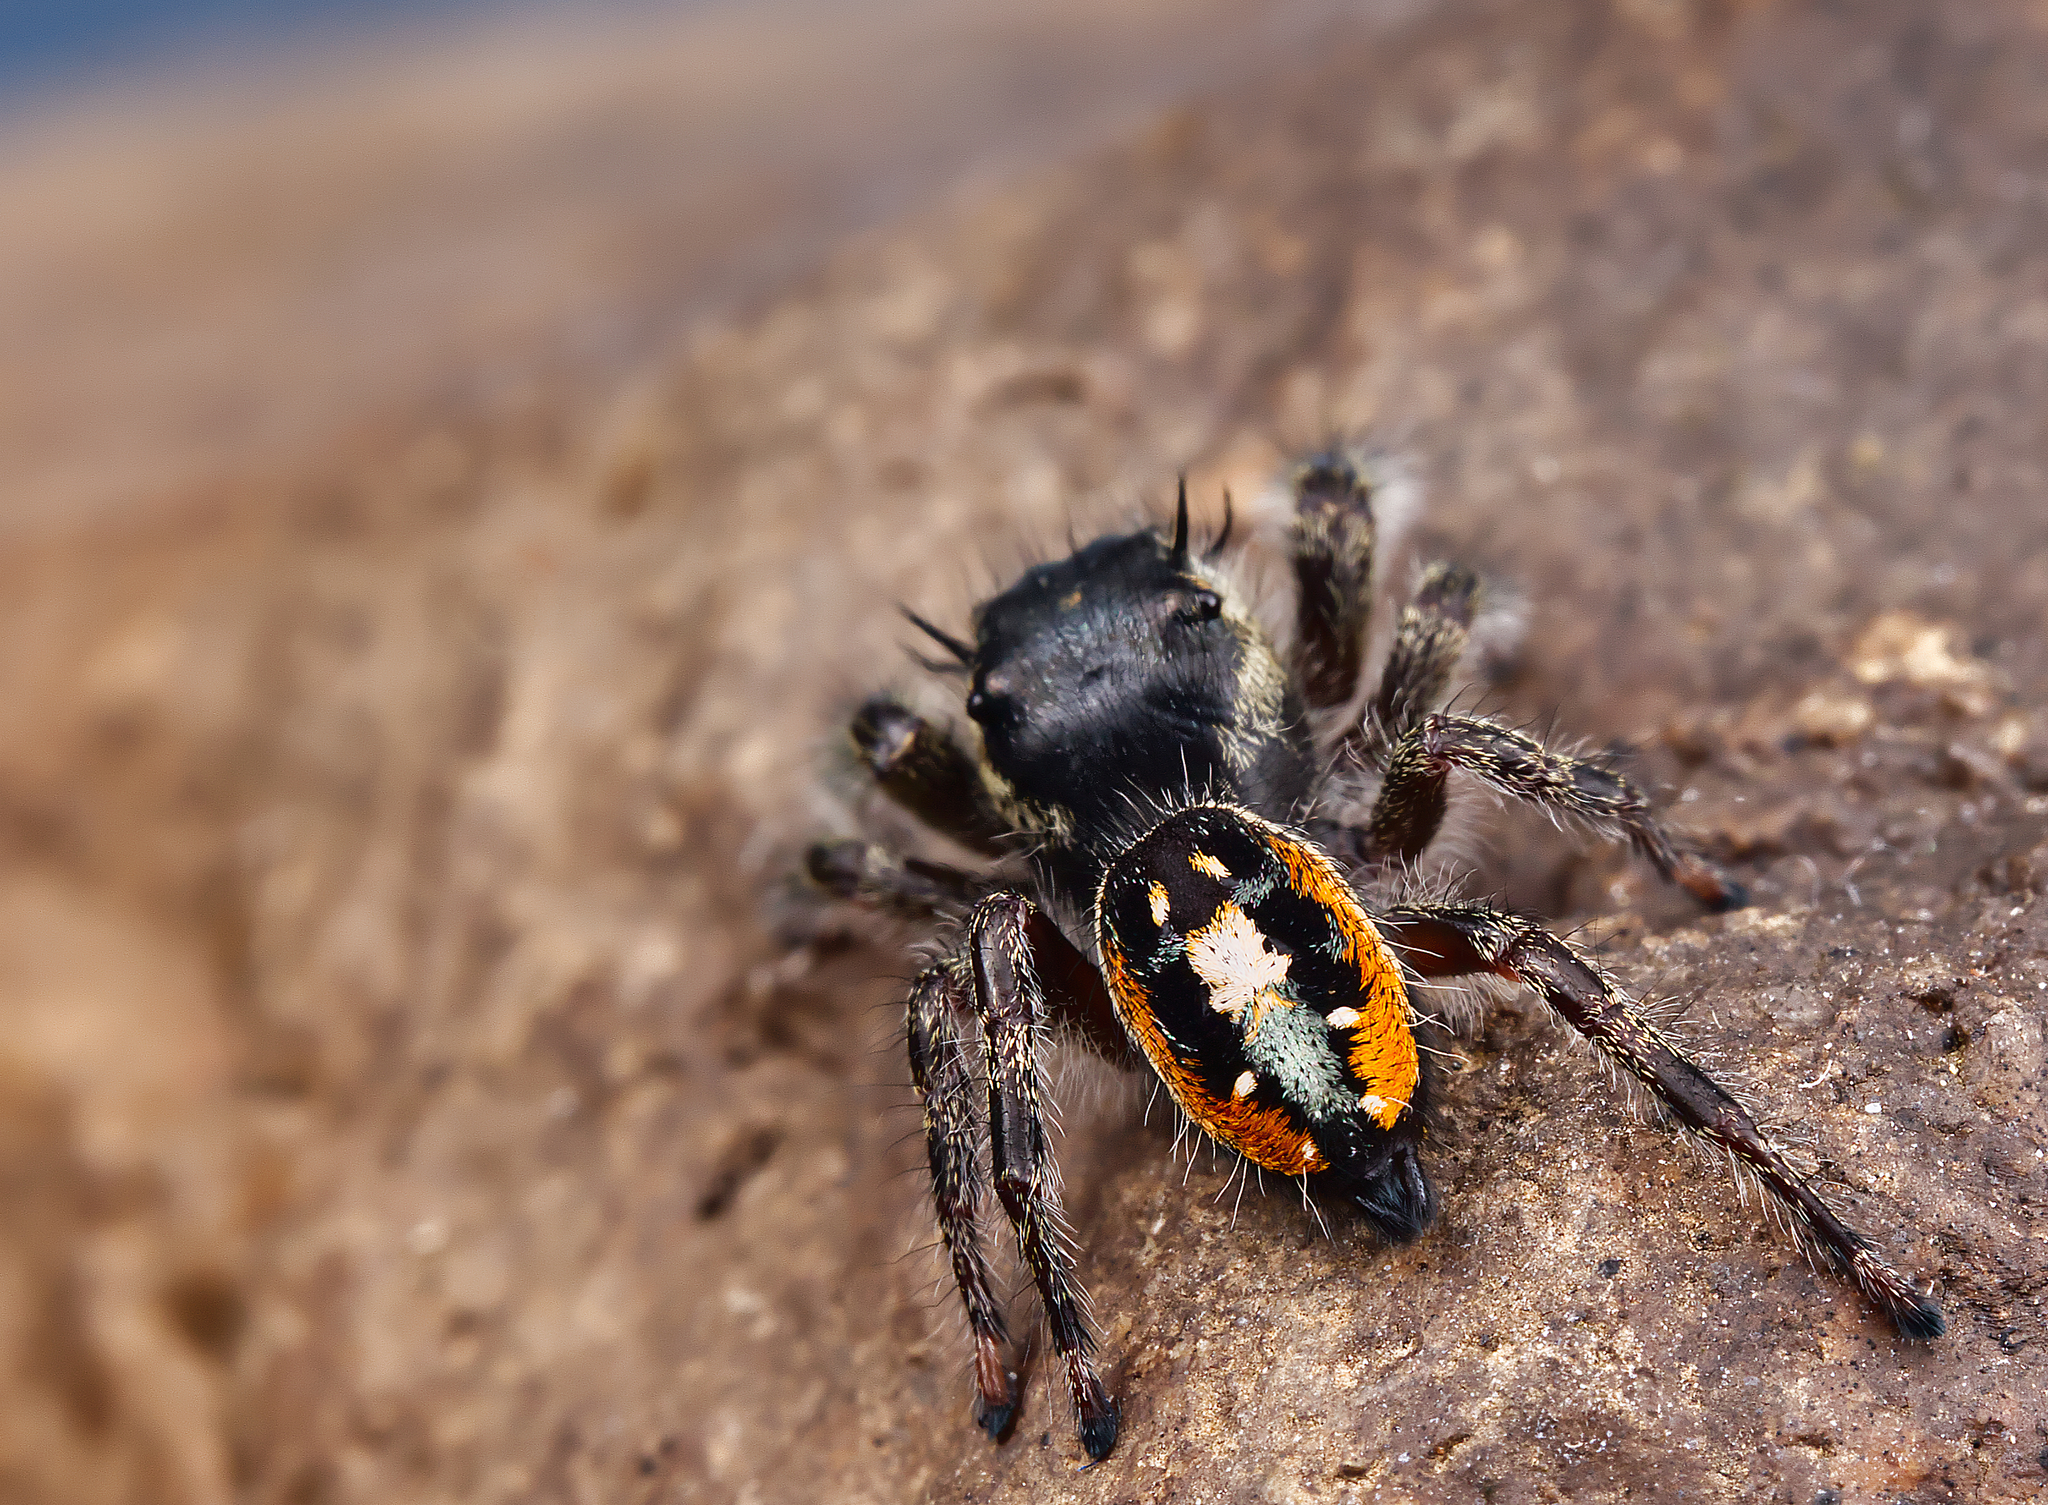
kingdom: Animalia
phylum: Arthropoda
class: Arachnida
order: Araneae
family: Salticidae
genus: Phidippus
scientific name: Phidippus insignarius
